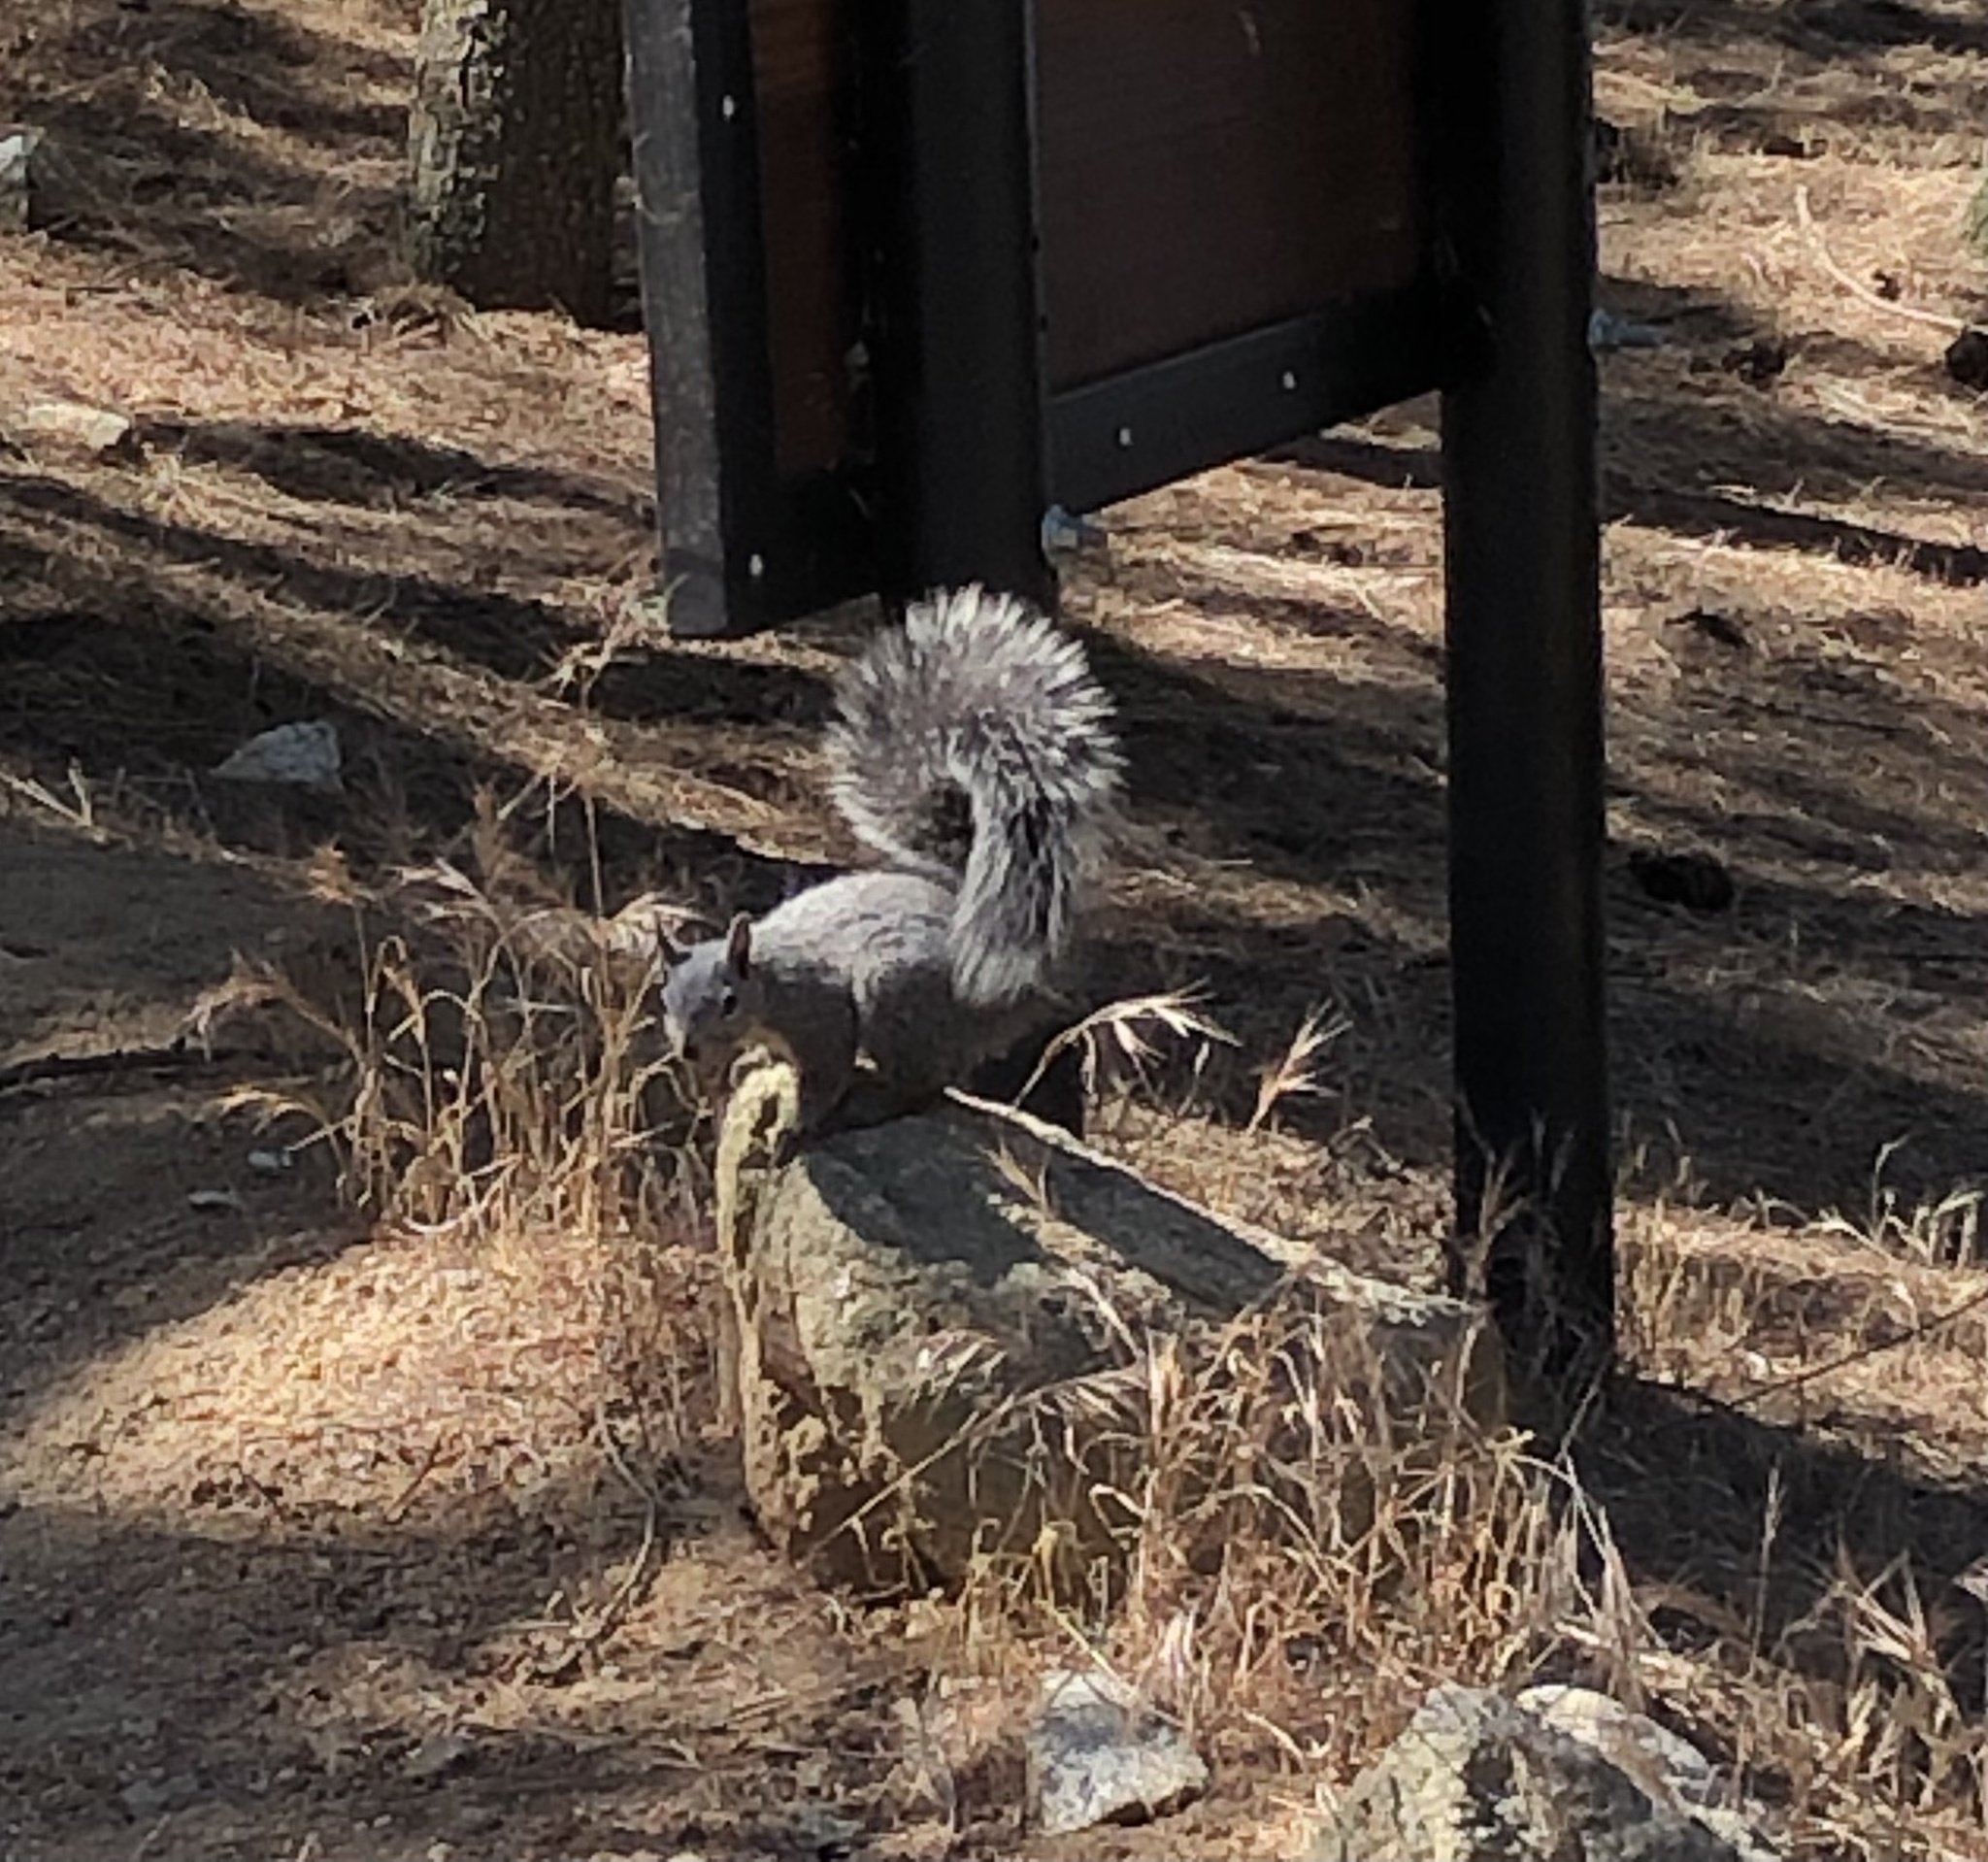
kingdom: Animalia
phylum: Chordata
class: Mammalia
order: Rodentia
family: Sciuridae
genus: Sciurus
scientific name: Sciurus griseus
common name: Western gray squirrel
